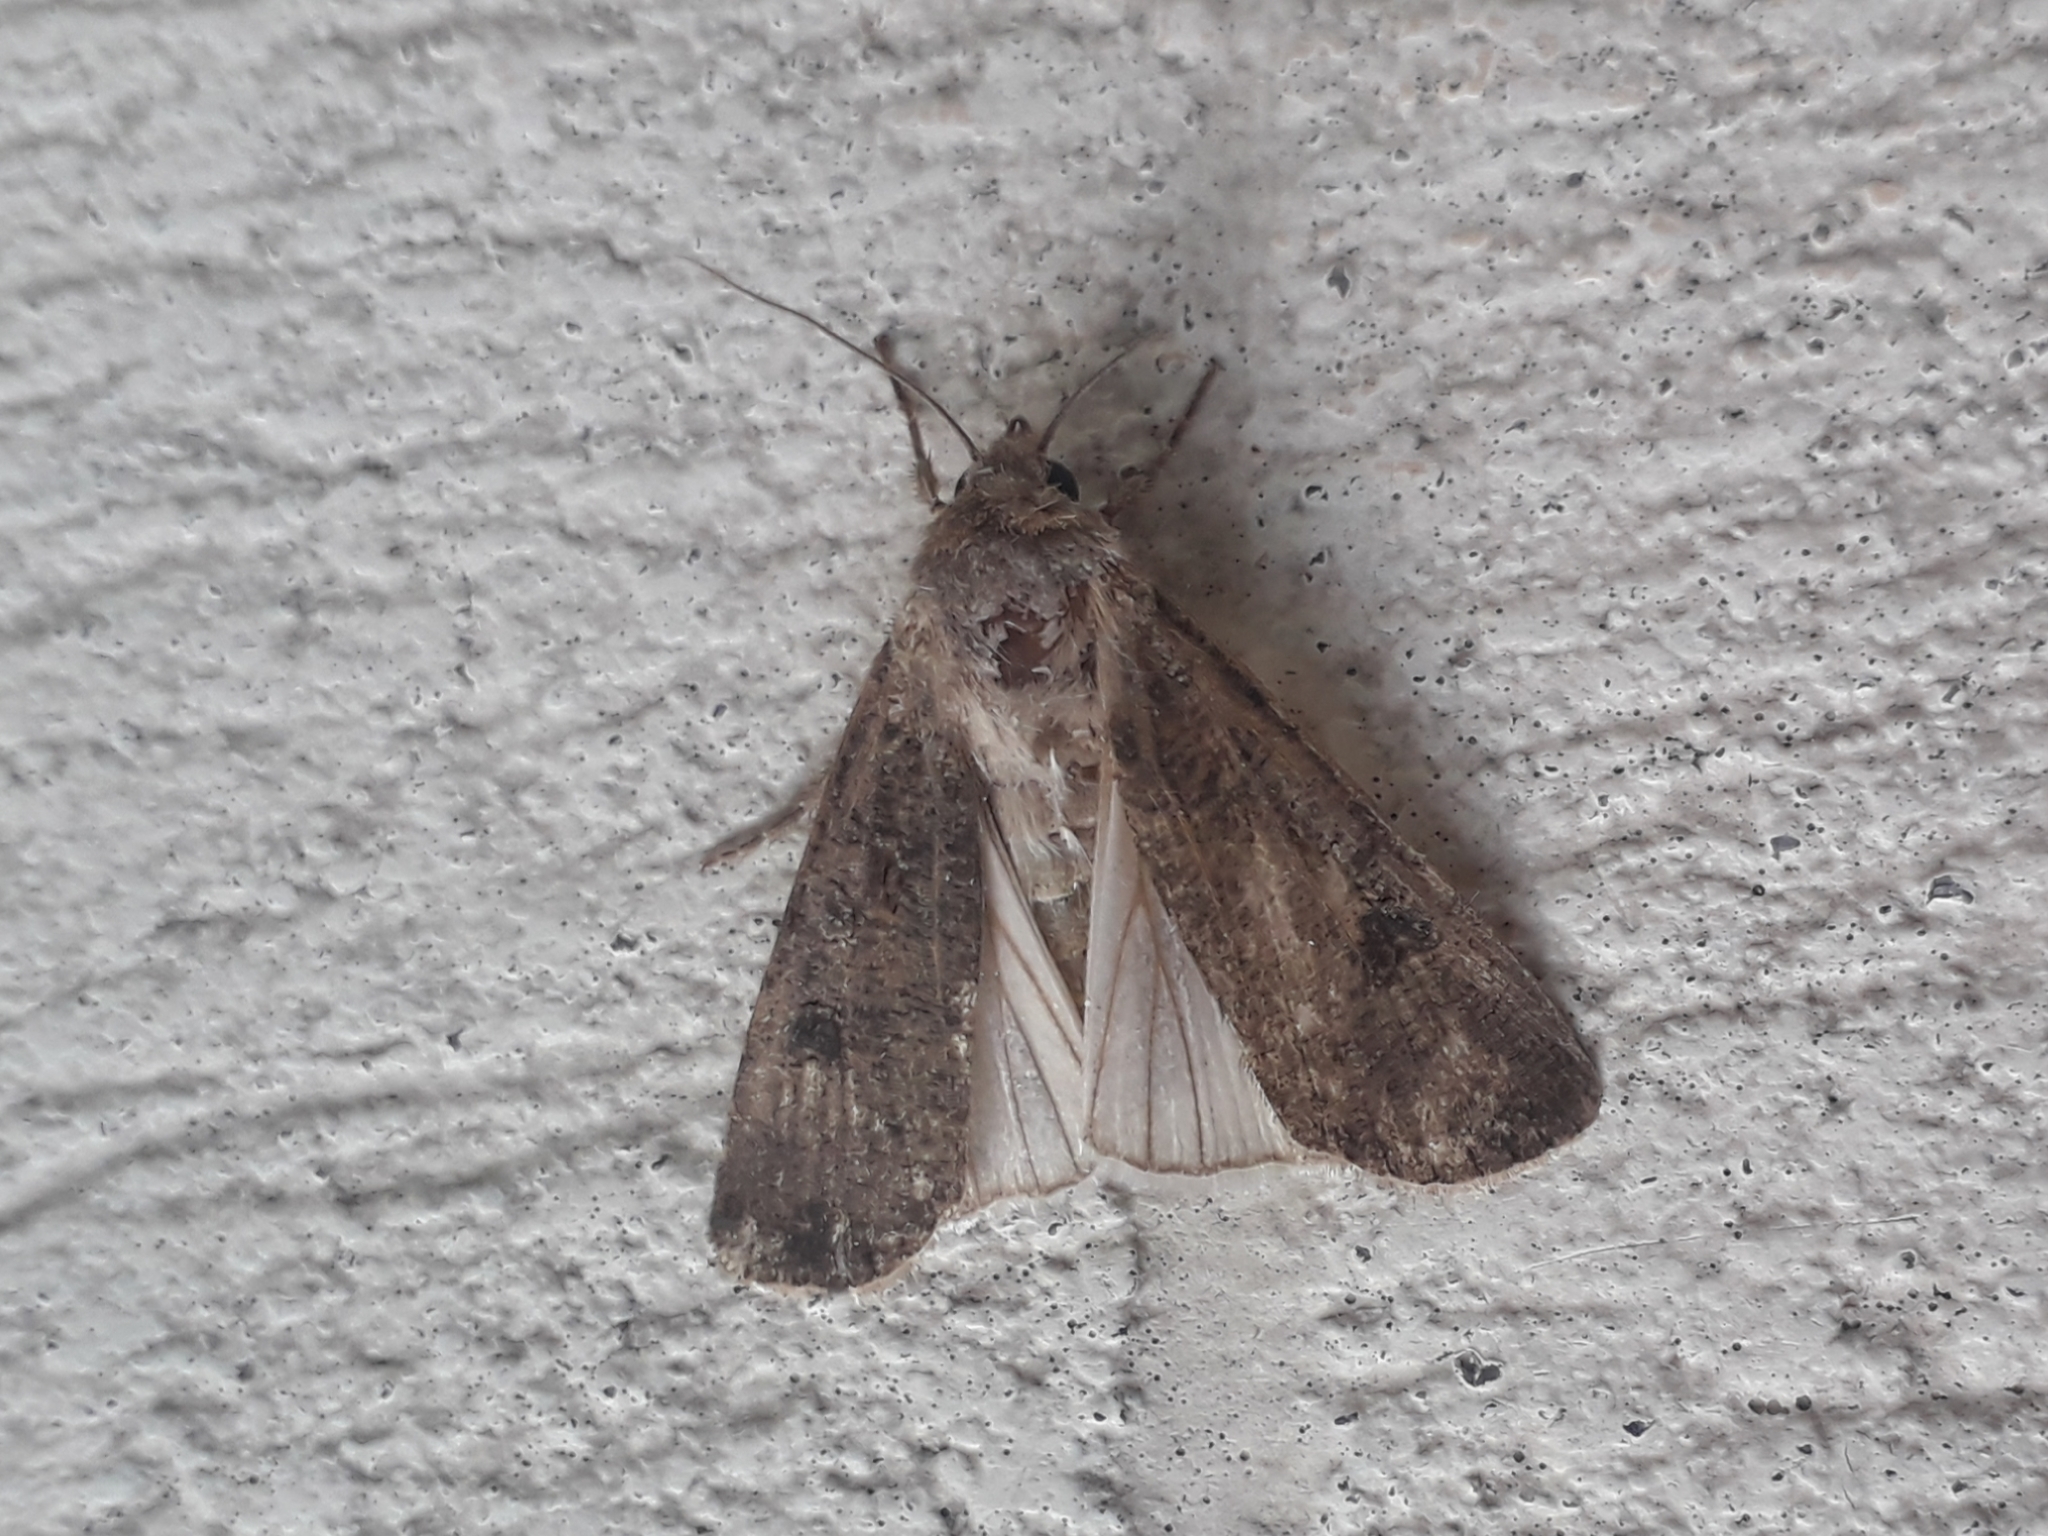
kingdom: Animalia
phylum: Arthropoda
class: Insecta
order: Lepidoptera
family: Noctuidae
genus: Agrotis
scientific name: Agrotis segetum
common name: Turnip moth
